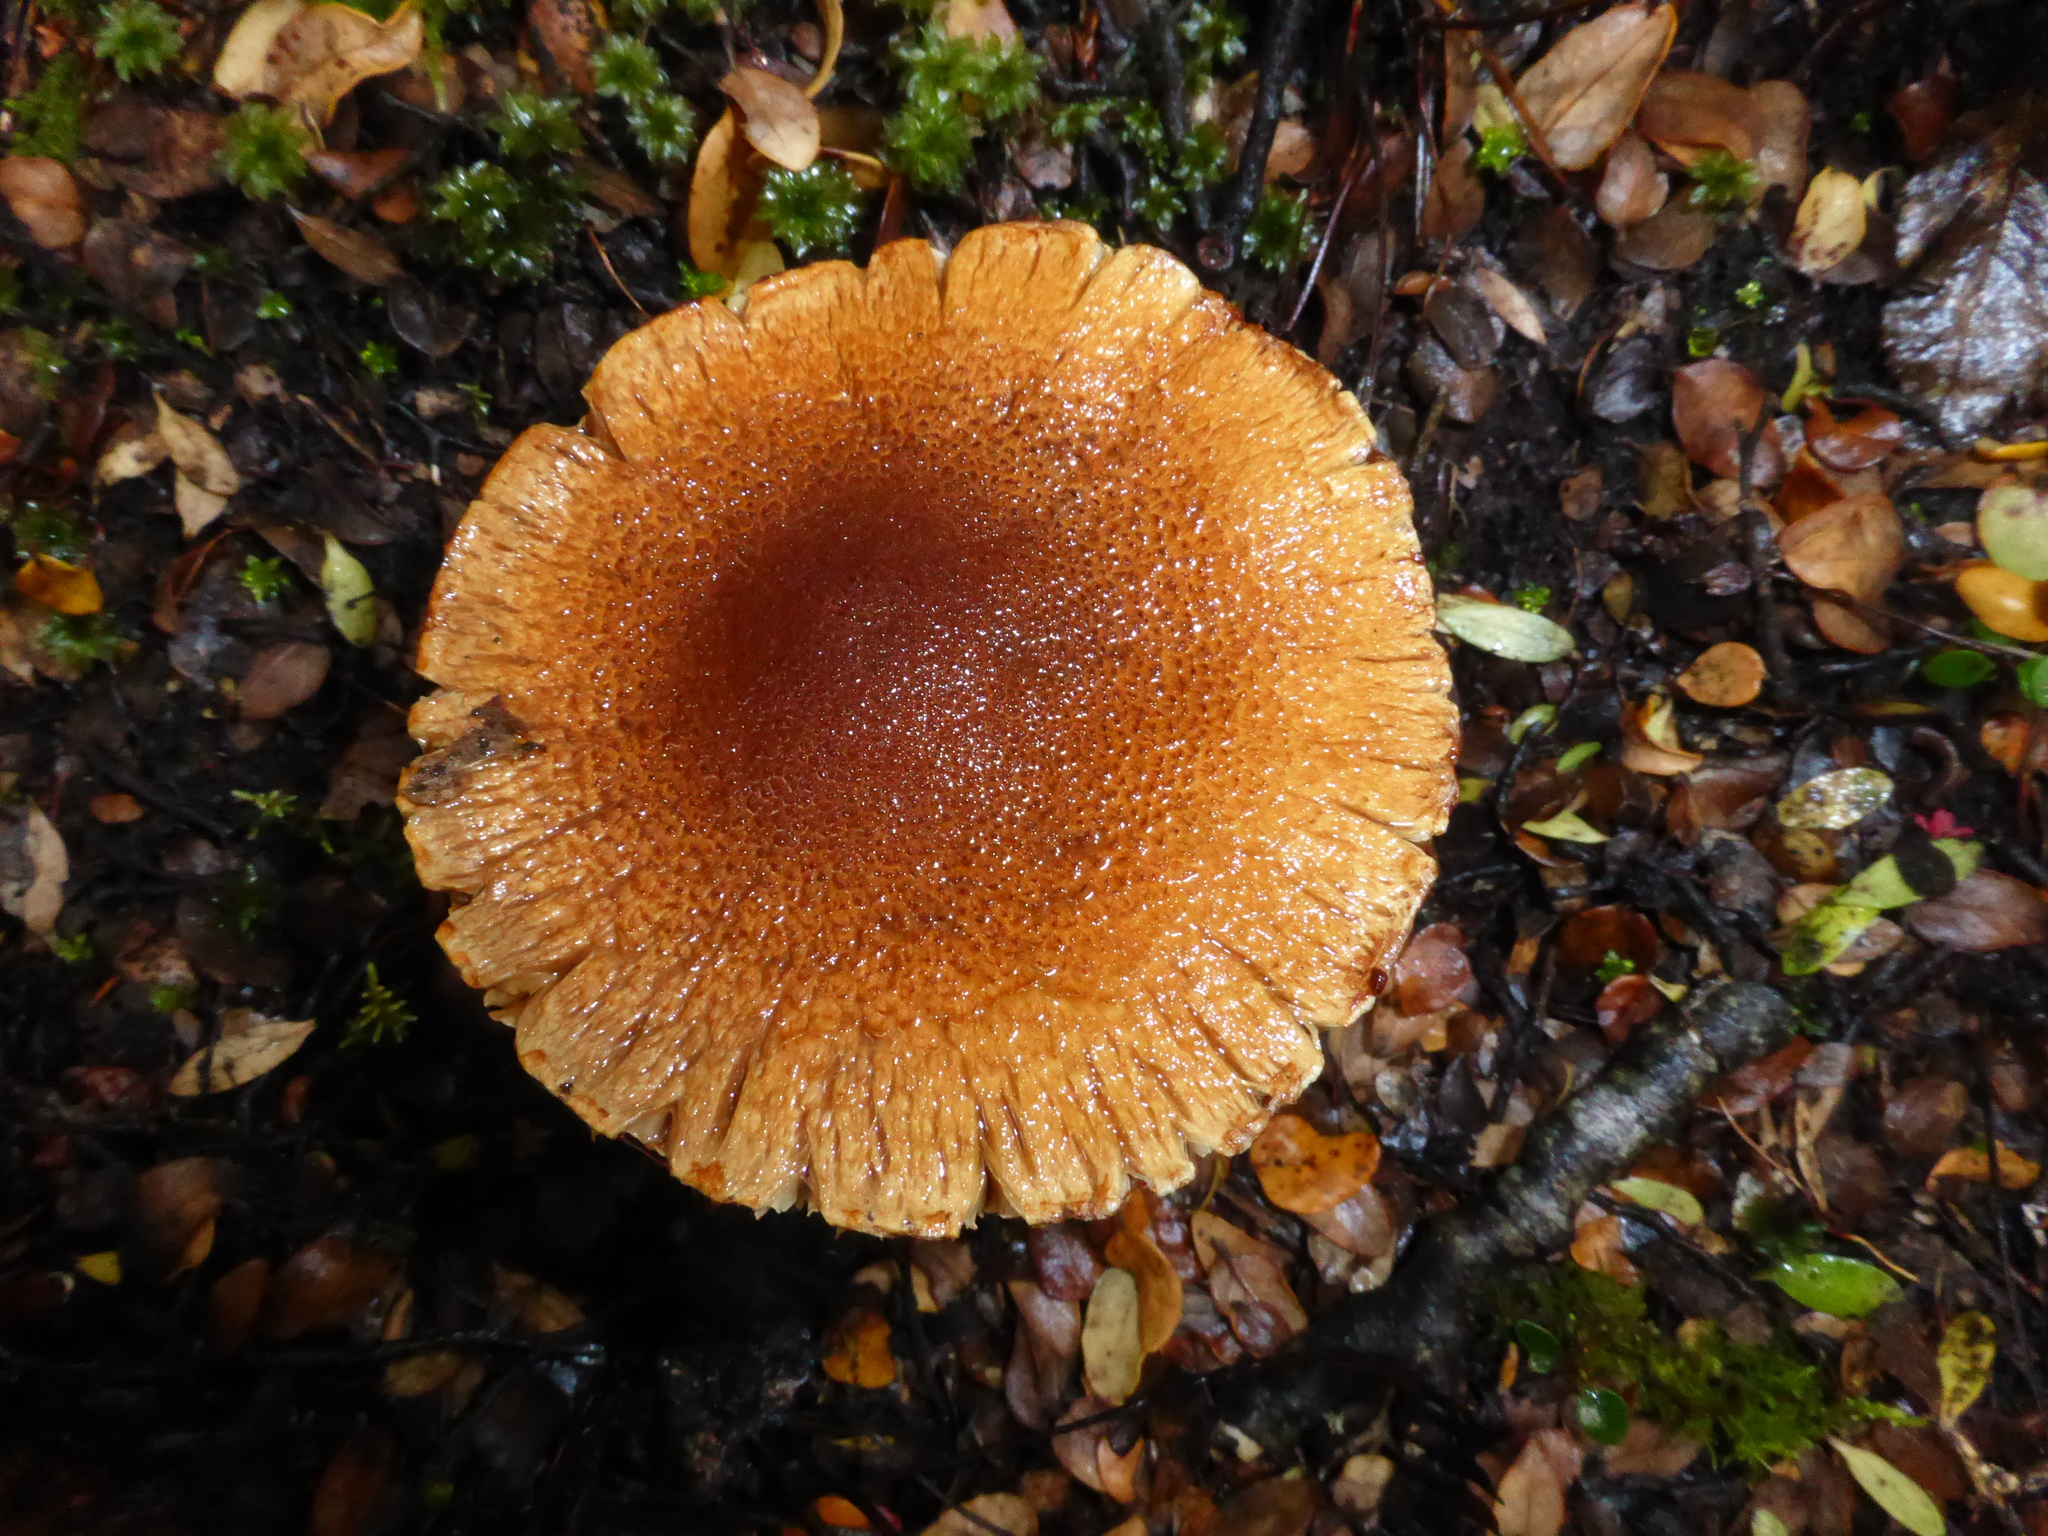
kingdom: Fungi
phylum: Basidiomycota
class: Agaricomycetes
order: Agaricales
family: Cortinariaceae
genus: Thaxterogaster
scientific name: Thaxterogaster castoreus
